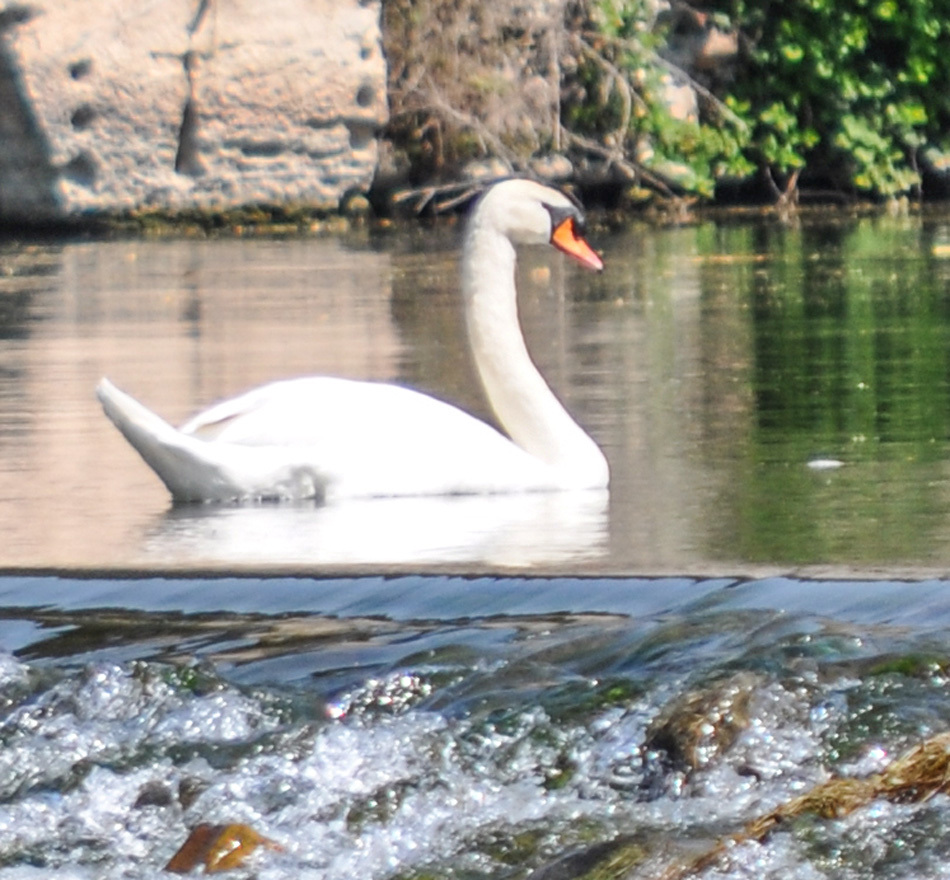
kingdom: Animalia
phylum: Chordata
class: Aves
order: Anseriformes
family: Anatidae
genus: Cygnus
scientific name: Cygnus olor
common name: Mute swan
